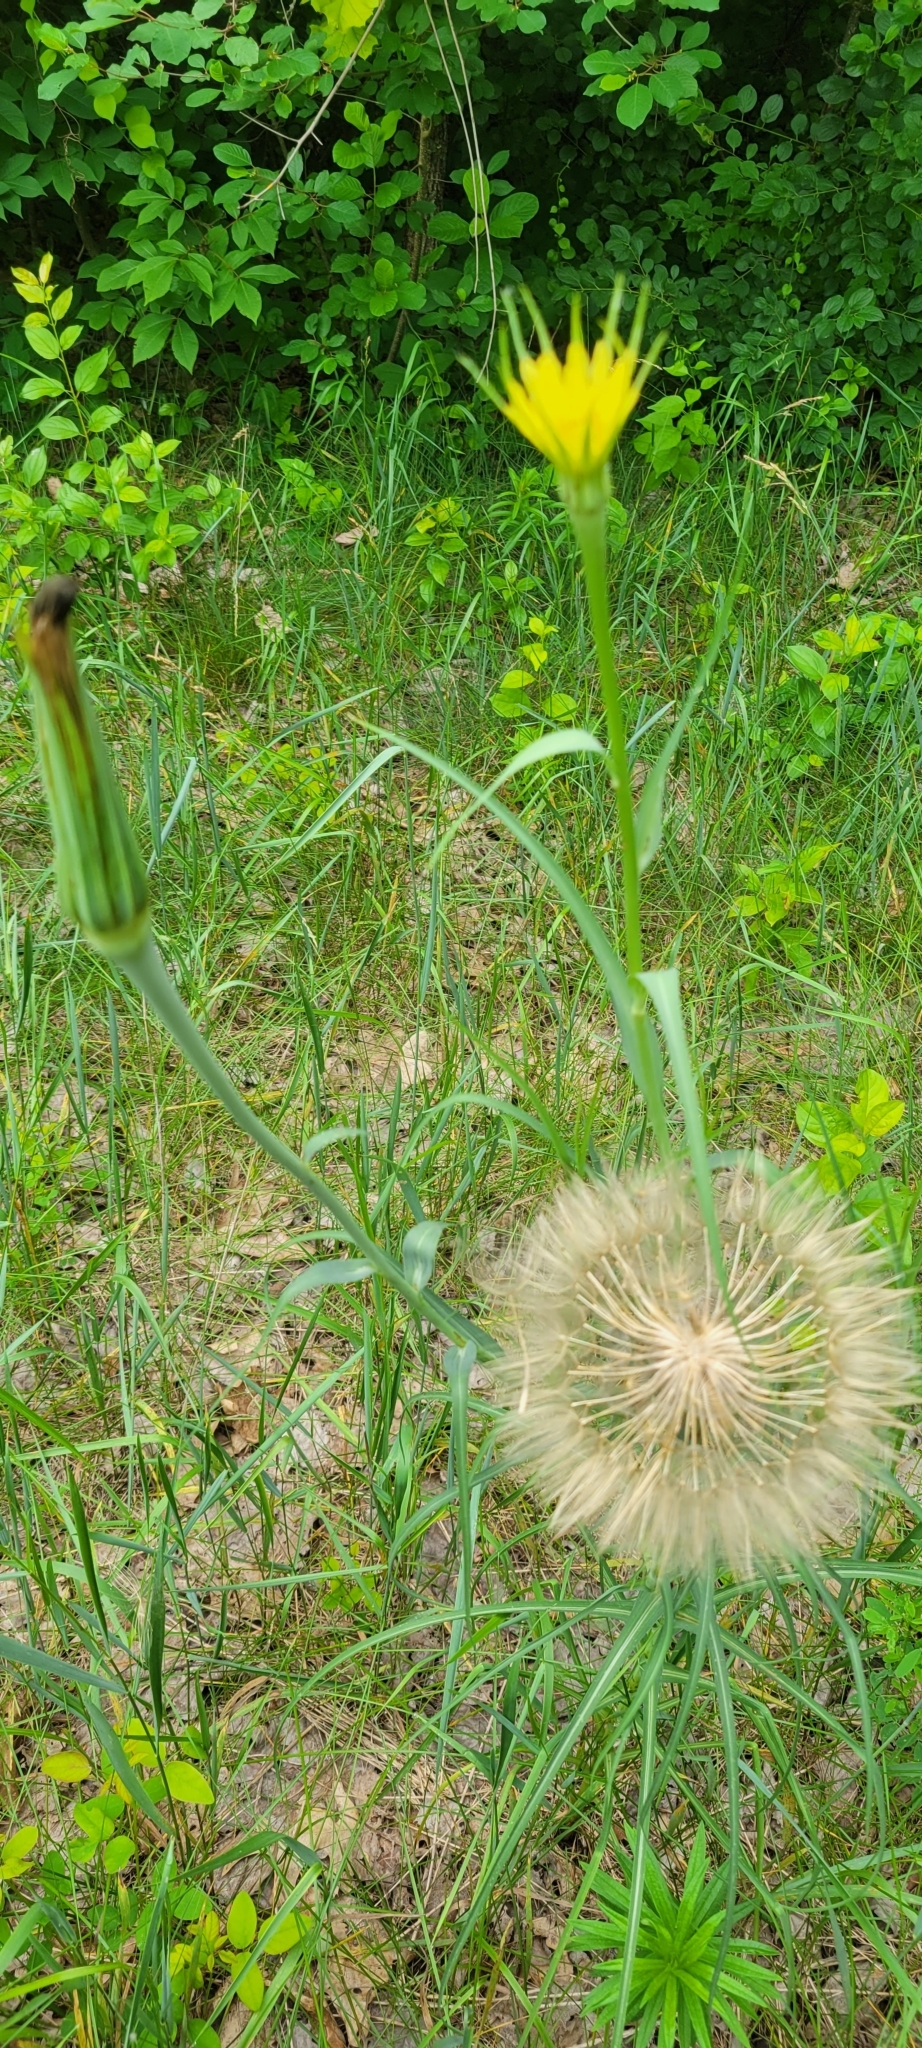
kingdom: Plantae
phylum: Tracheophyta
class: Magnoliopsida
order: Asterales
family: Asteraceae
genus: Tragopogon
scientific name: Tragopogon dubius
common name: Yellow salsify
